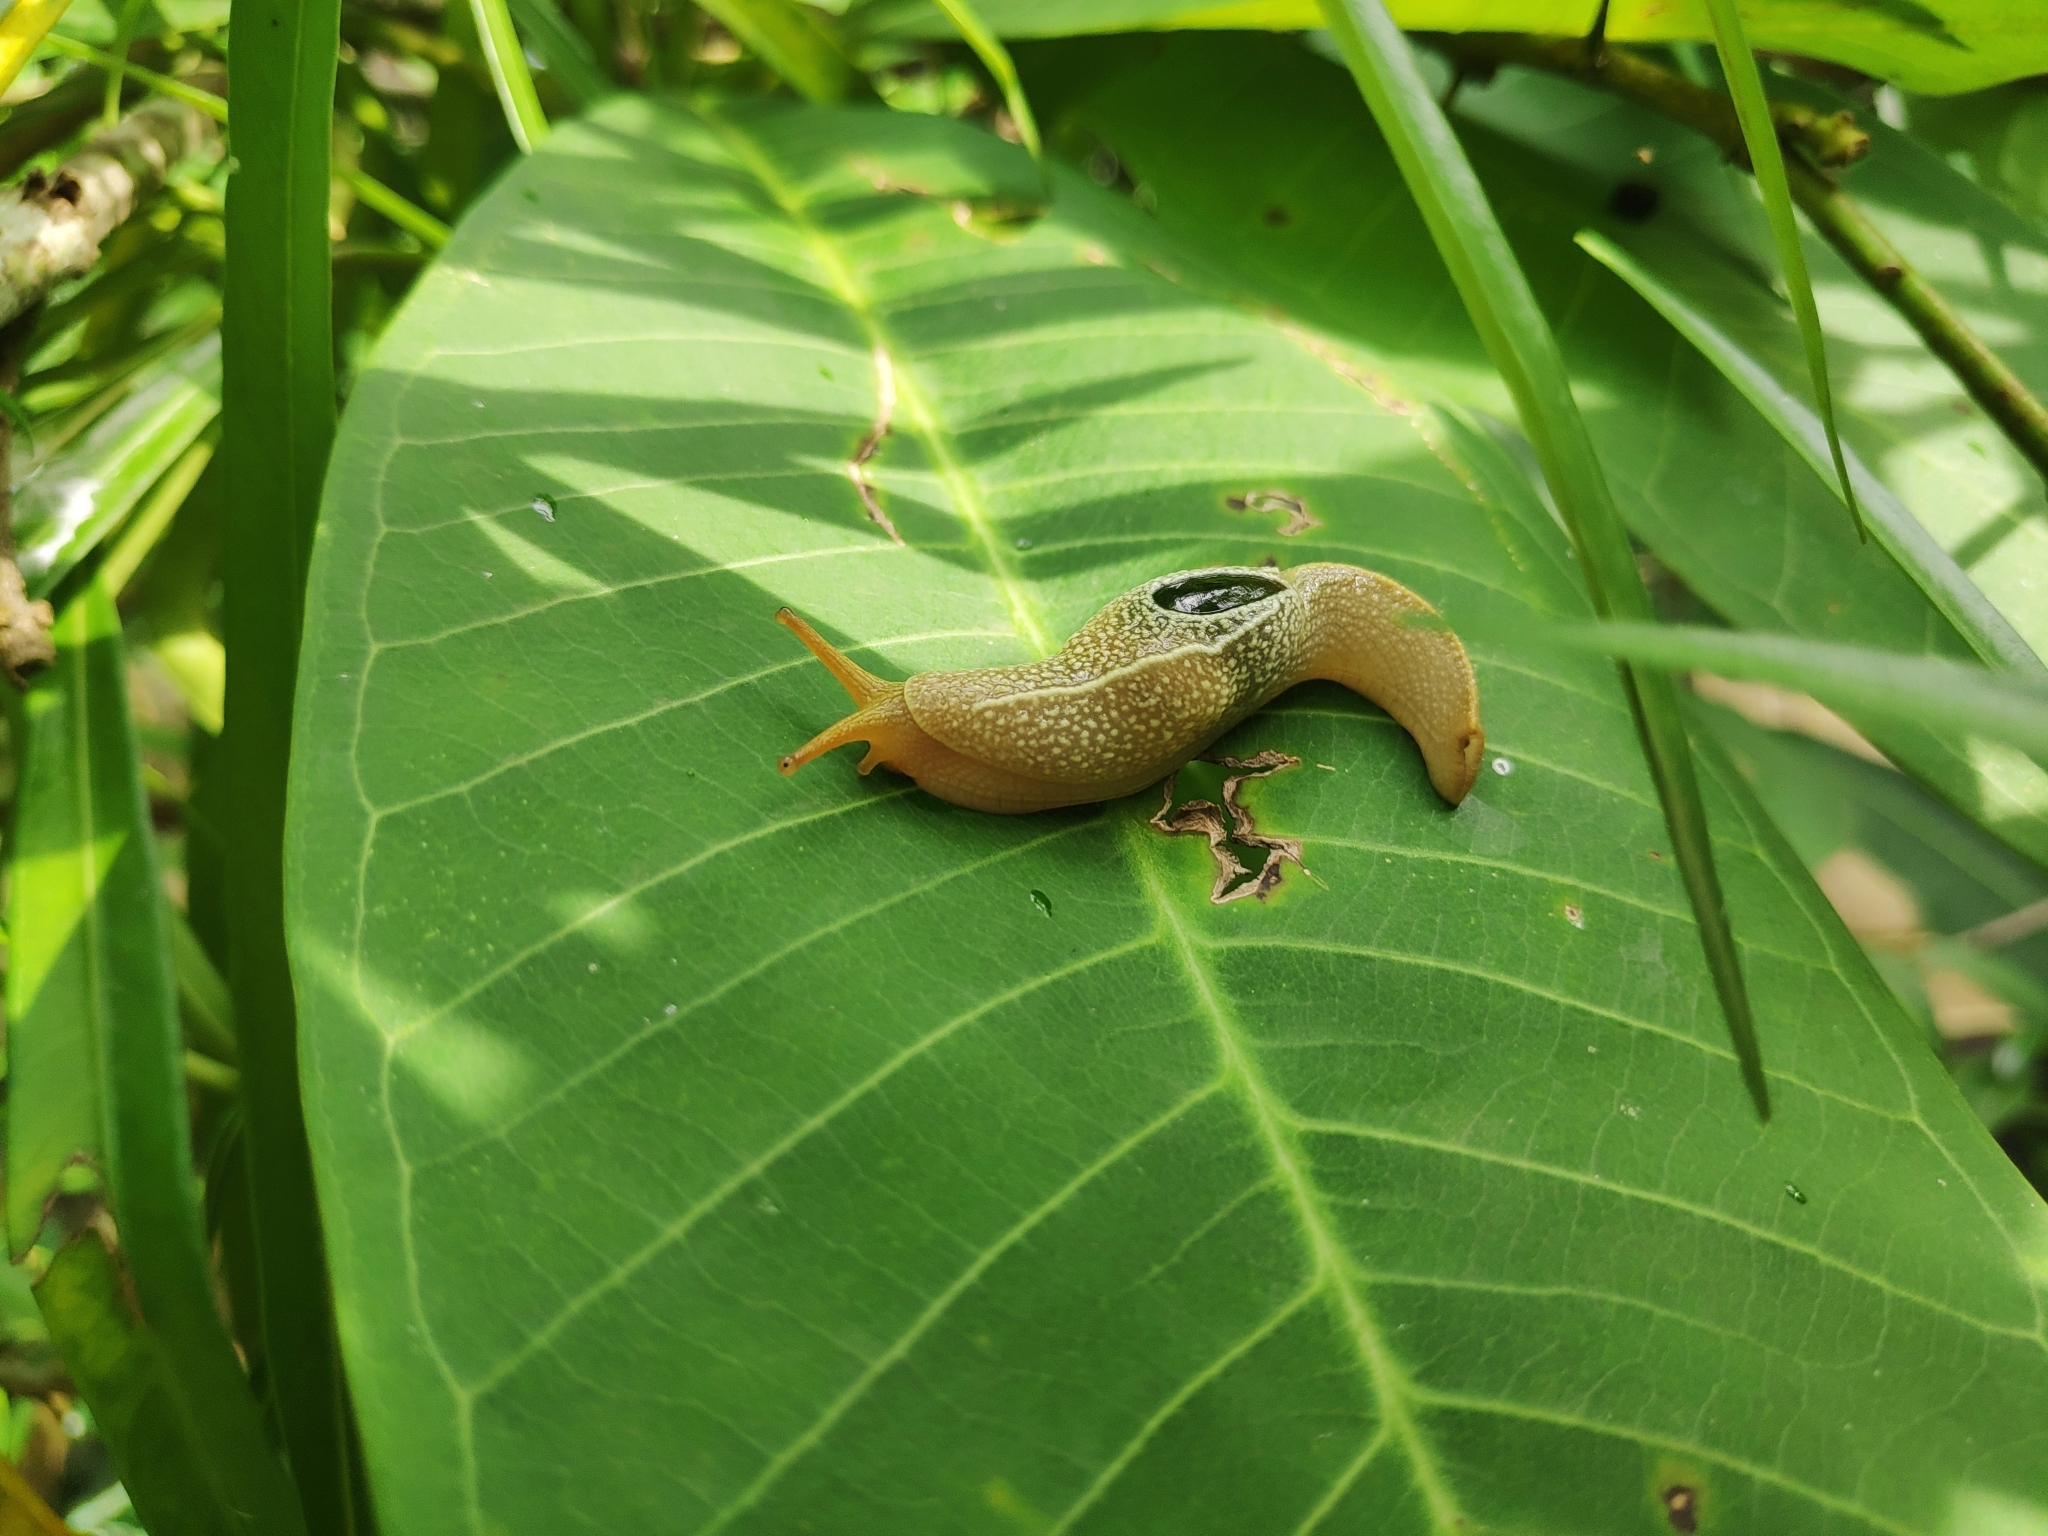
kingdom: Animalia
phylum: Mollusca
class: Gastropoda
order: Stylommatophora
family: Helicarionidae
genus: Girasia
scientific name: Girasia crocea
